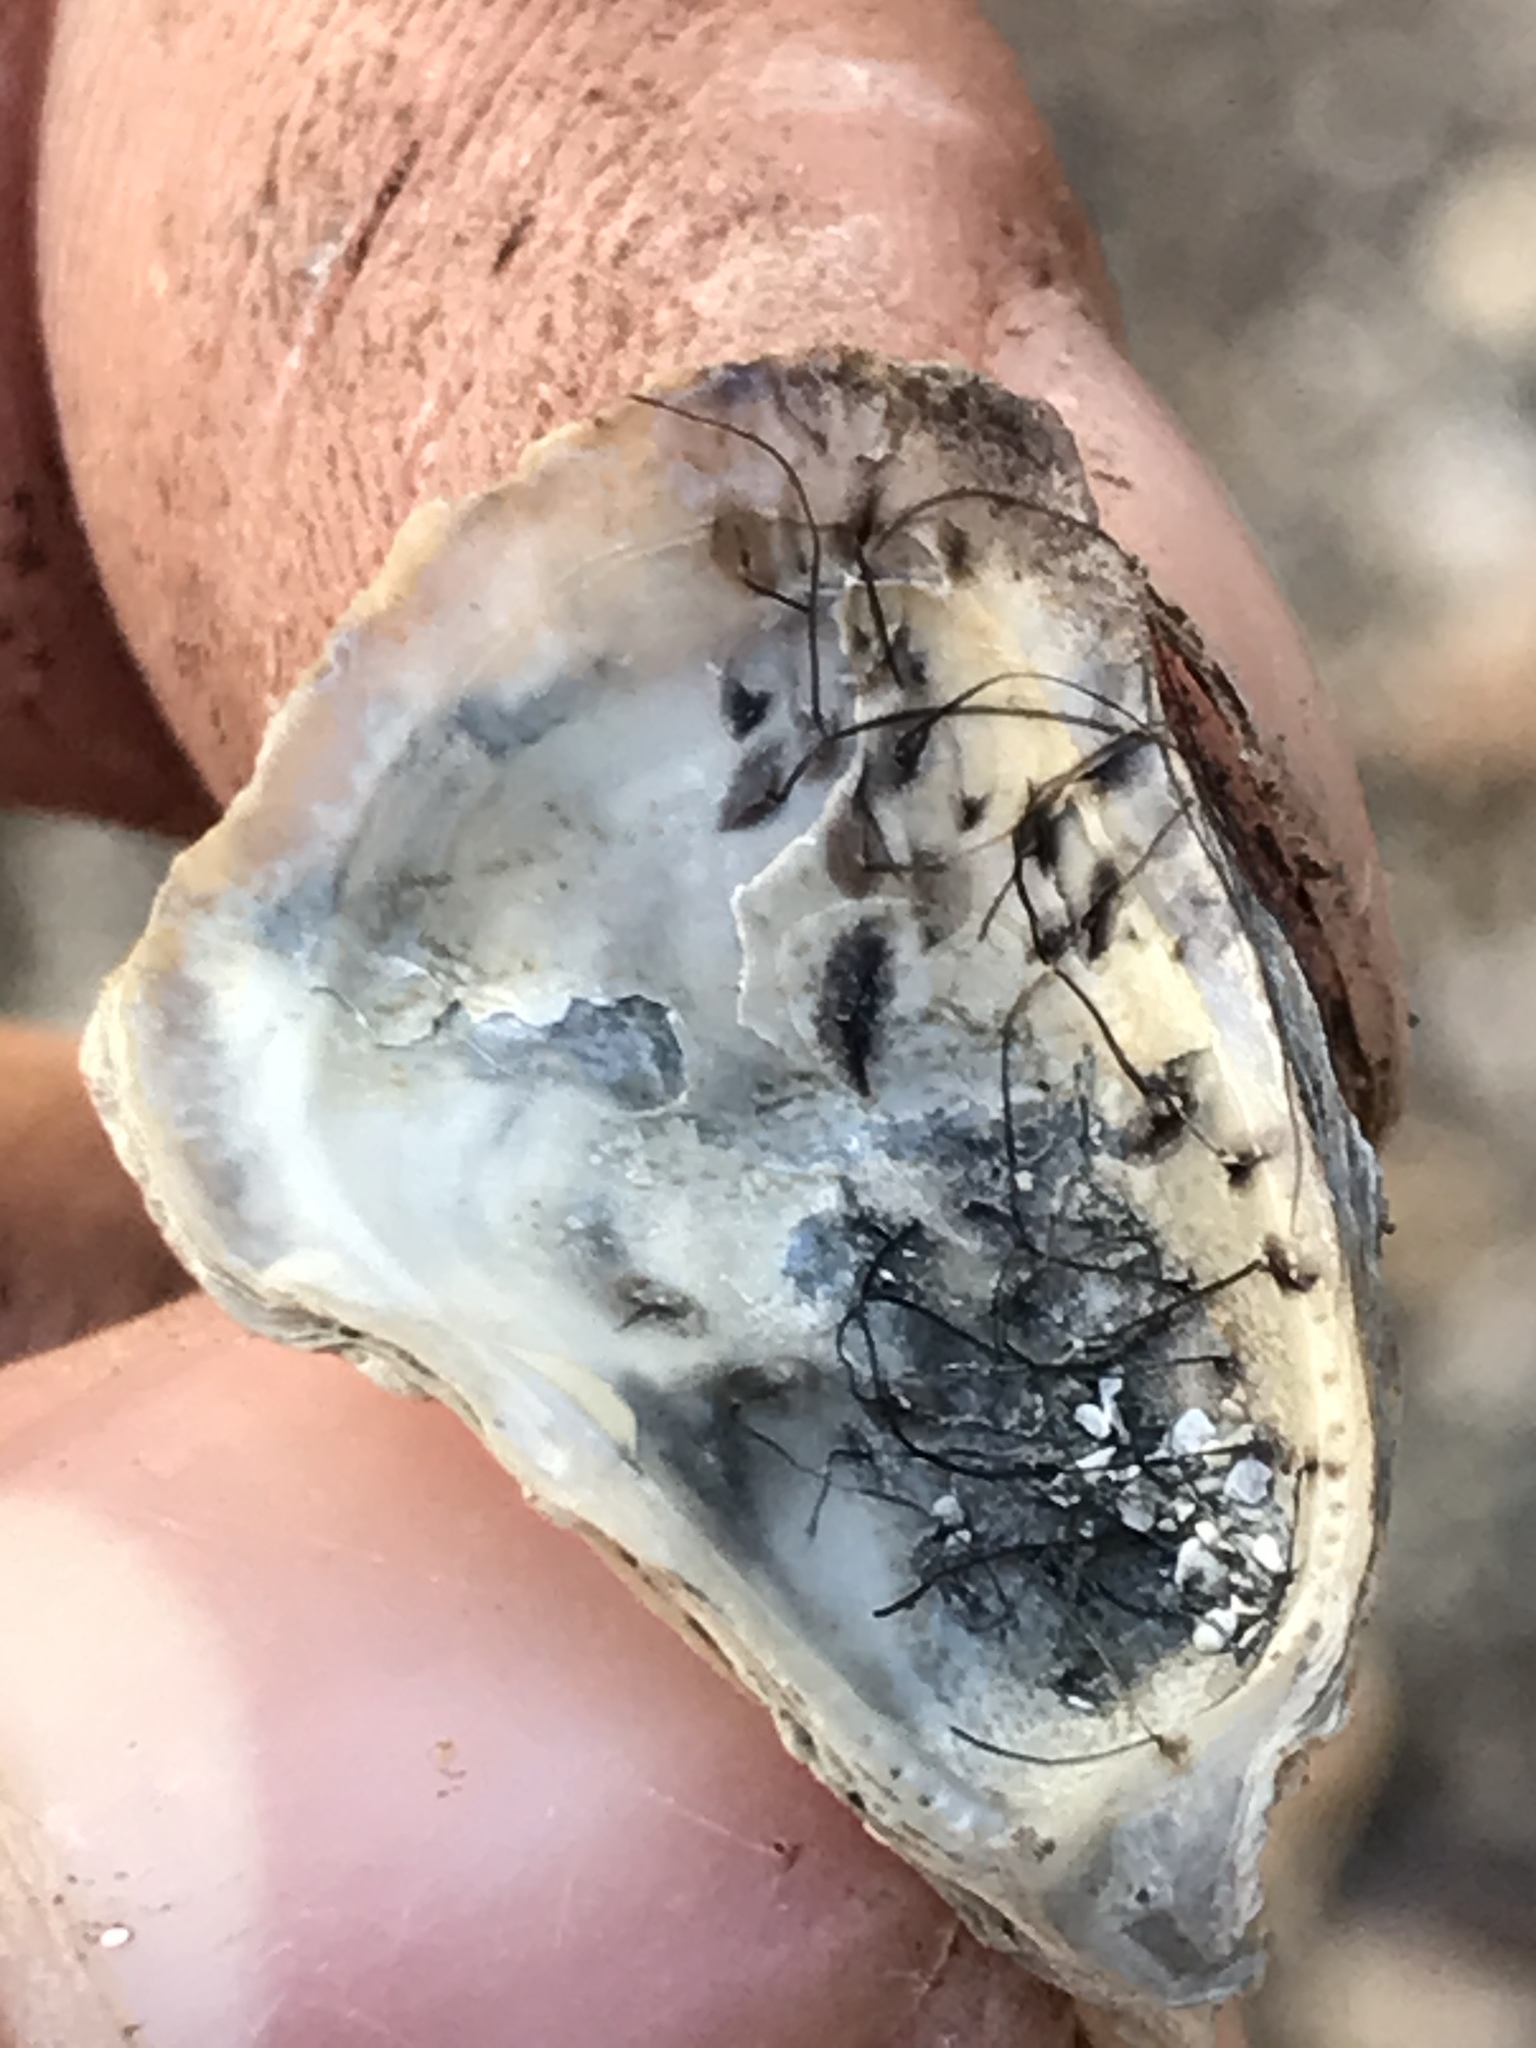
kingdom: Animalia
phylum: Mollusca
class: Bivalvia
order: Ostreida
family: Ostreidae
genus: Ostrea
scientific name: Ostrea lurida
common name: Olympia flat oyster
